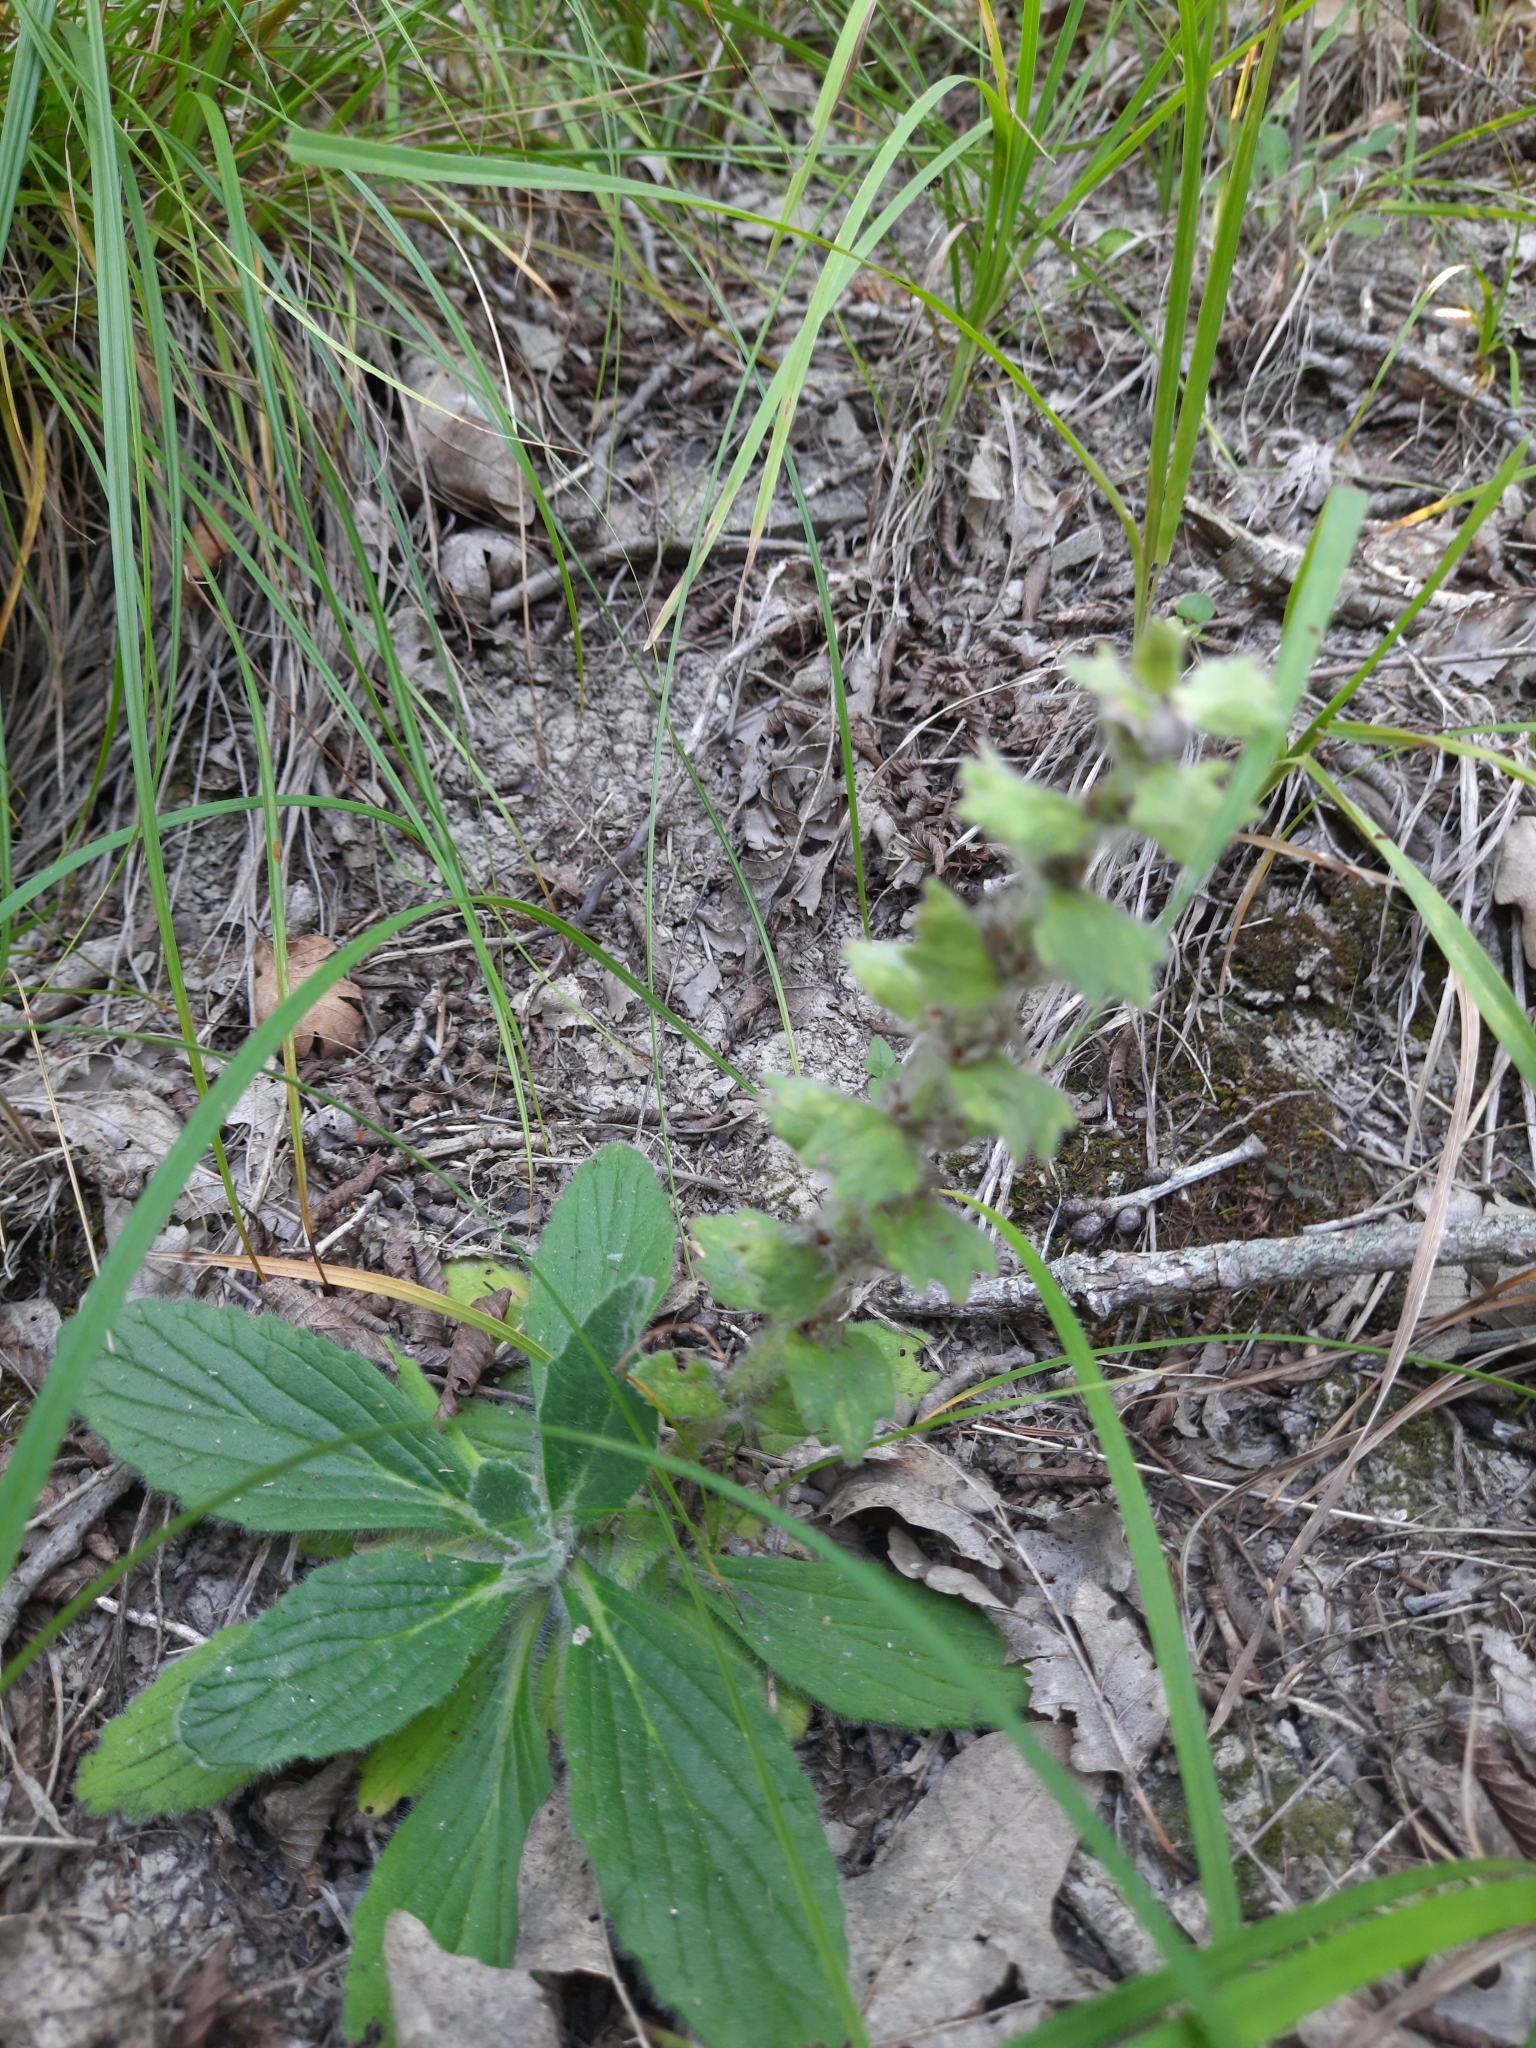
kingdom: Plantae
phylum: Tracheophyta
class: Magnoliopsida
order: Lamiales
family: Lamiaceae
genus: Ajuga
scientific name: Ajuga orientalis
